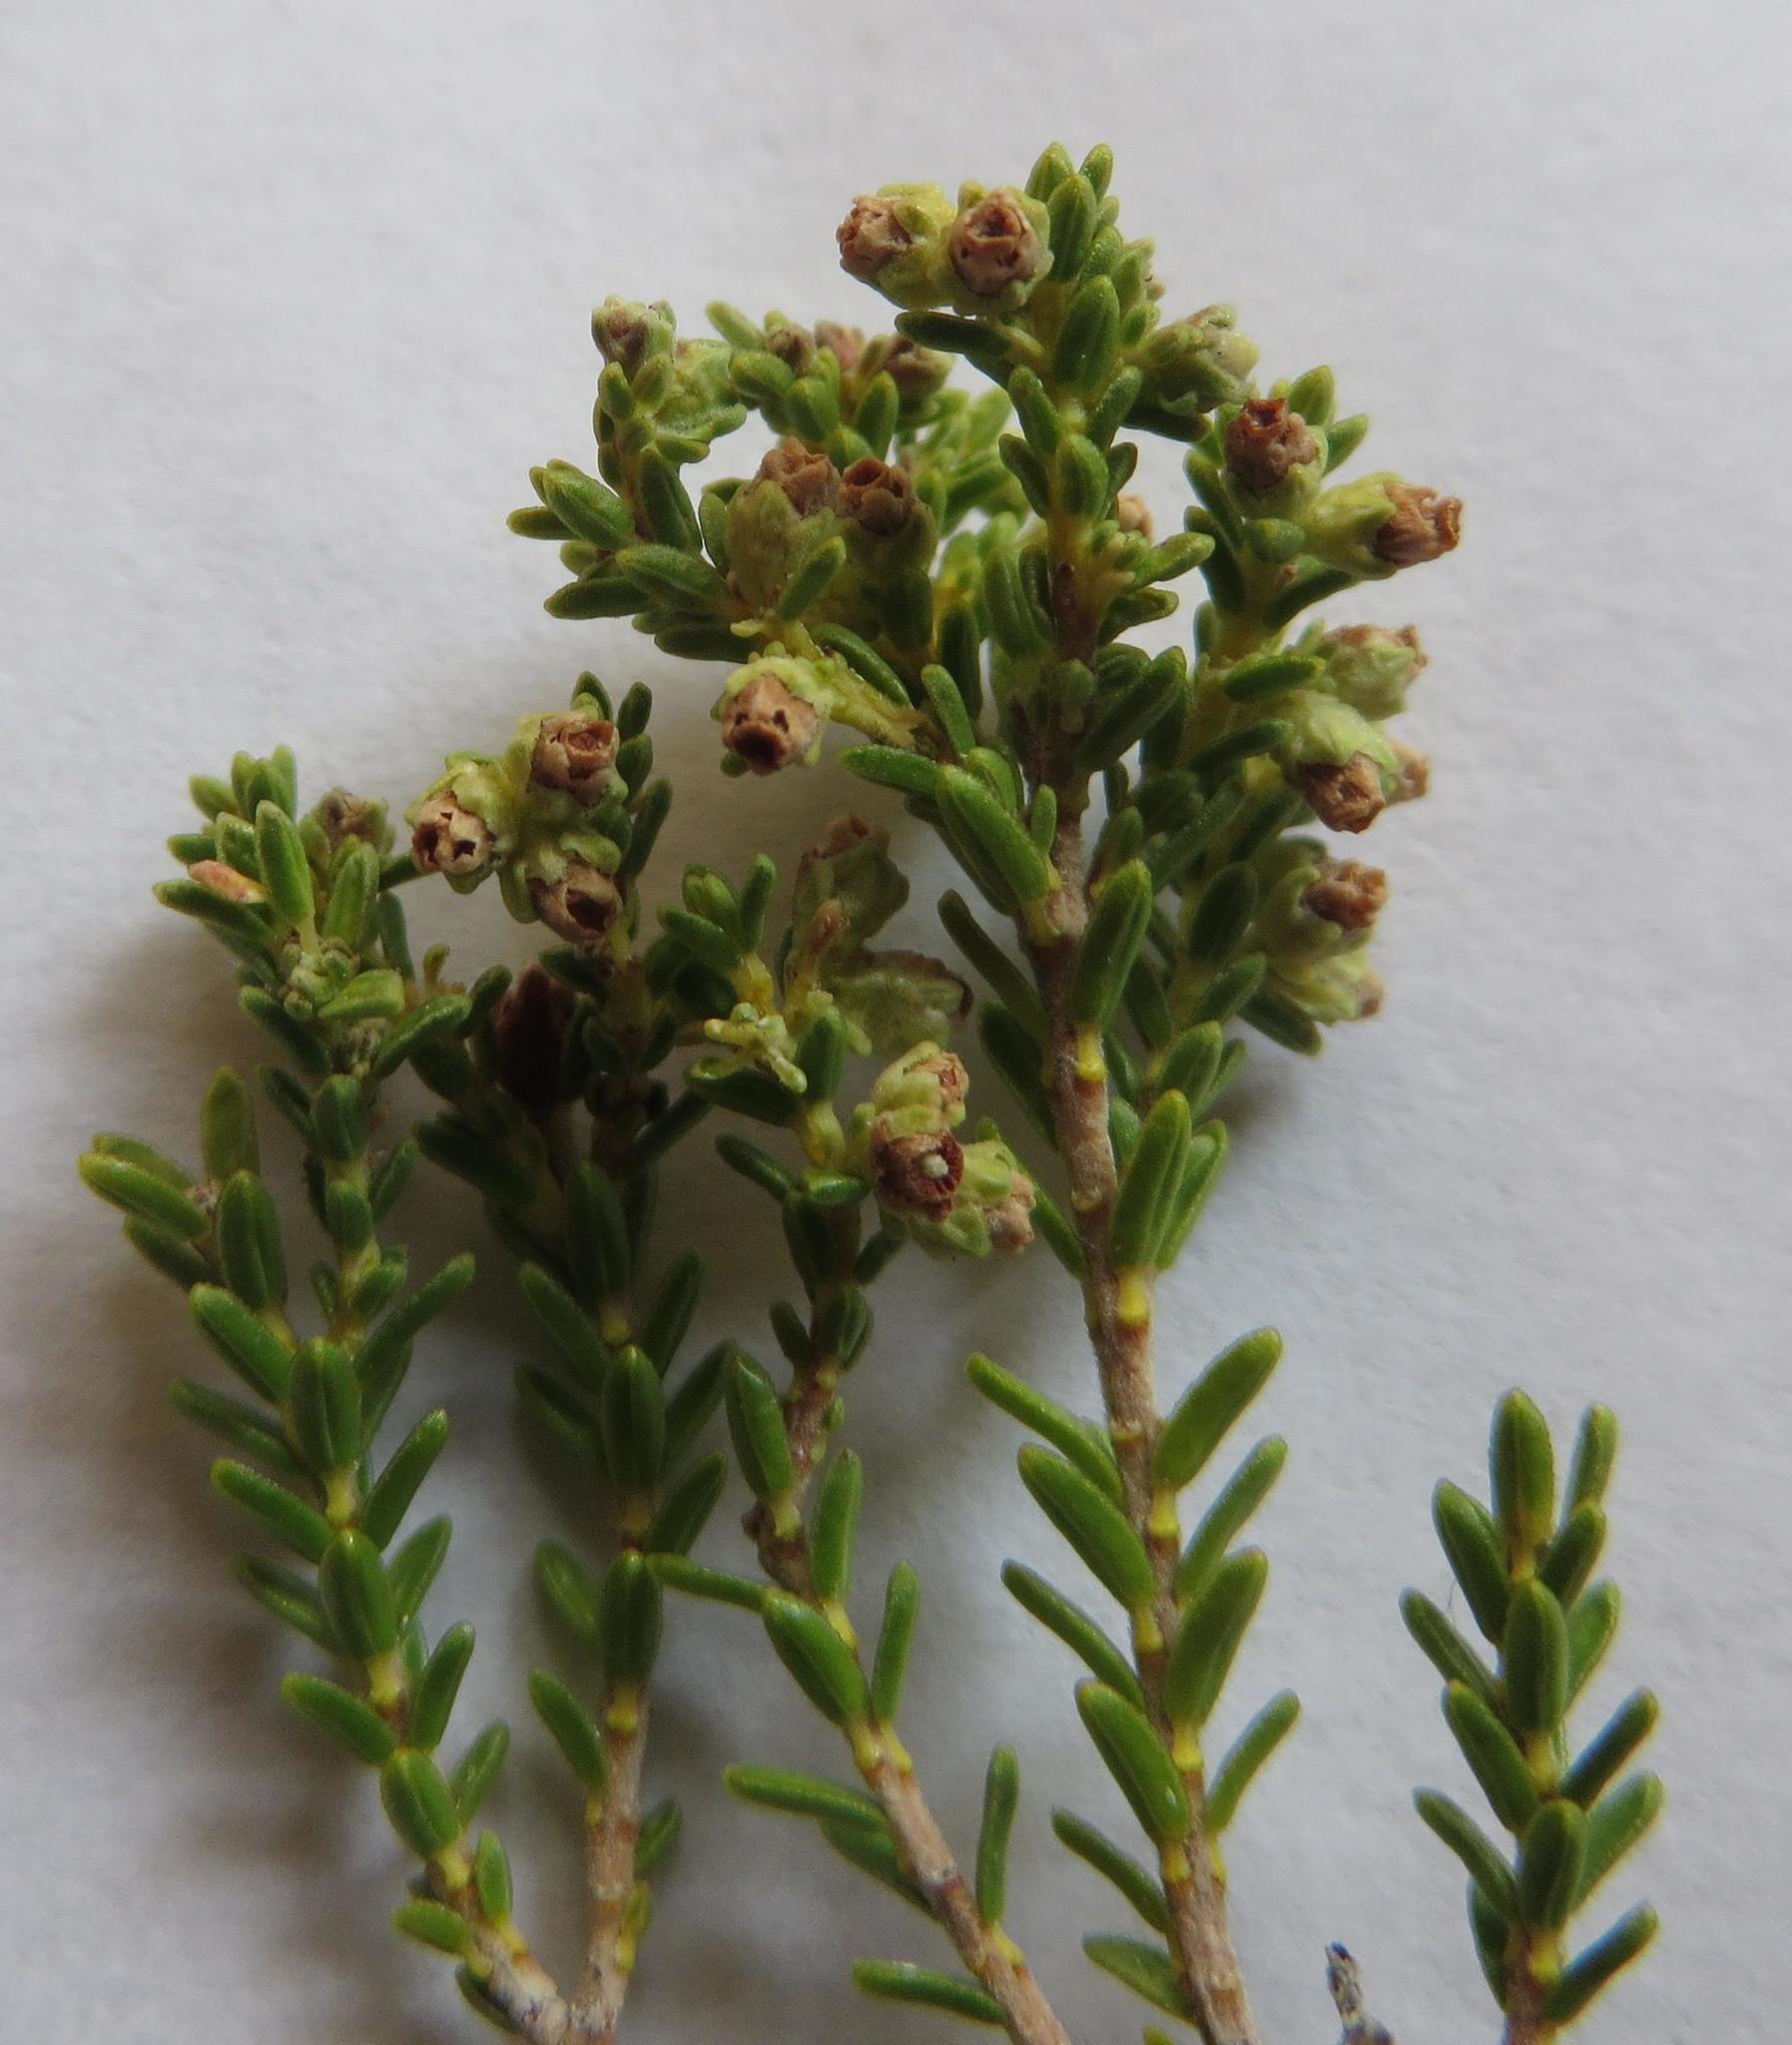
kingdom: Plantae
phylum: Tracheophyta
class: Magnoliopsida
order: Ericales
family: Ericaceae
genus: Erica
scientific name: Erica serrata
